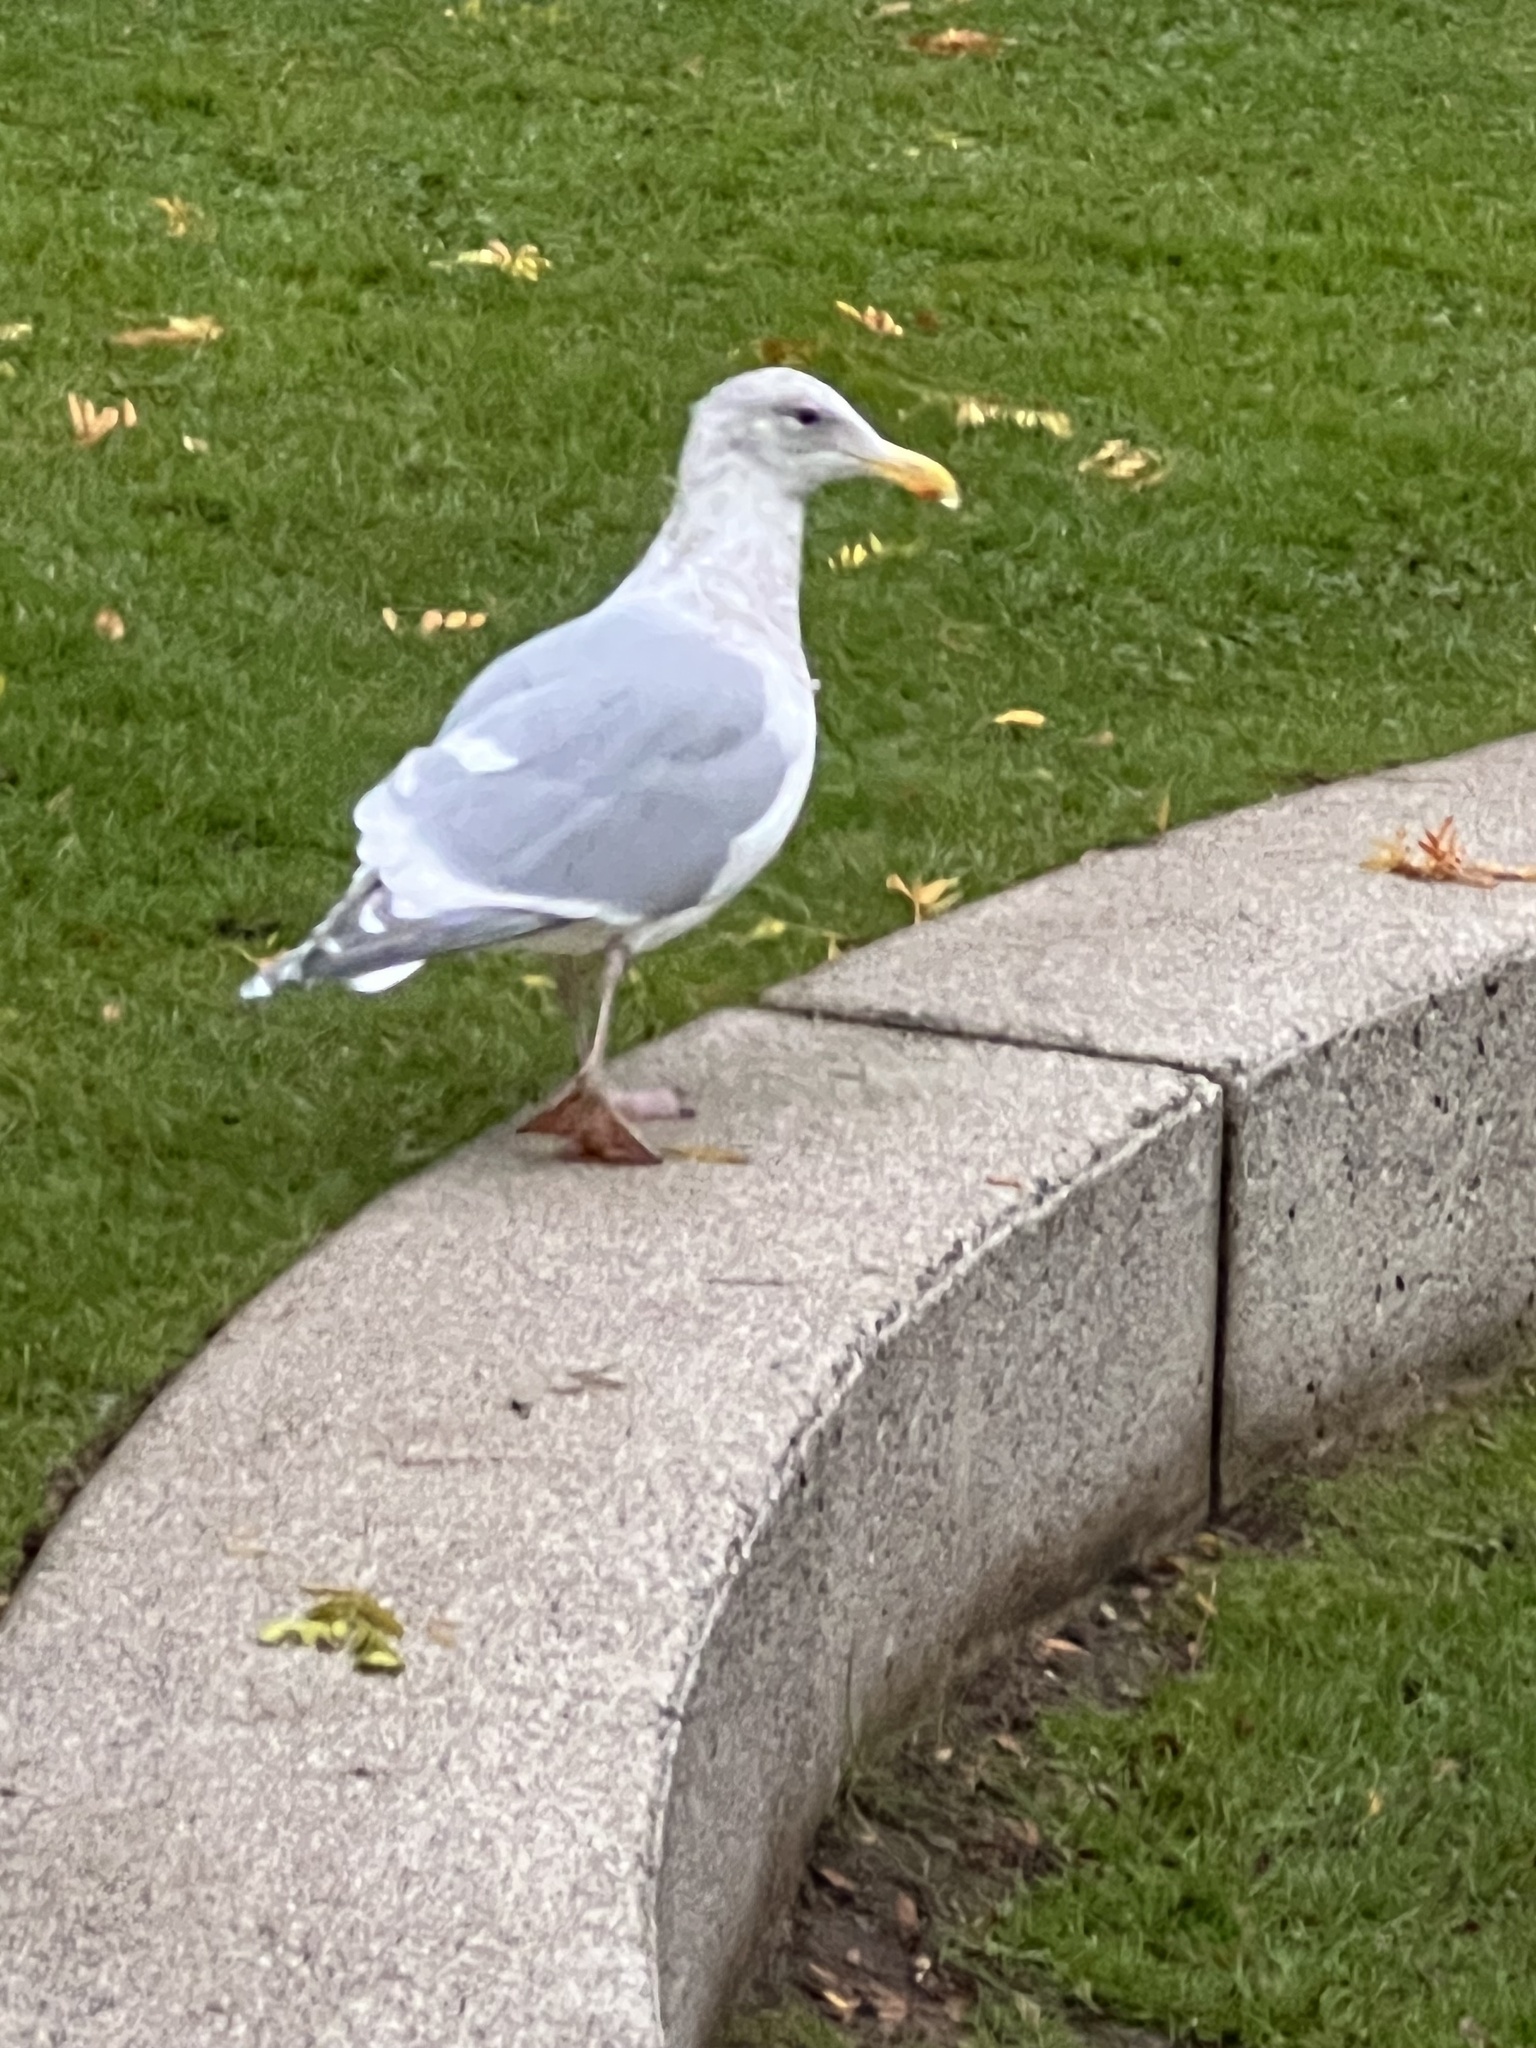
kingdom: Animalia
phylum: Chordata
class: Aves
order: Charadriiformes
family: Laridae
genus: Larus
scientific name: Larus
